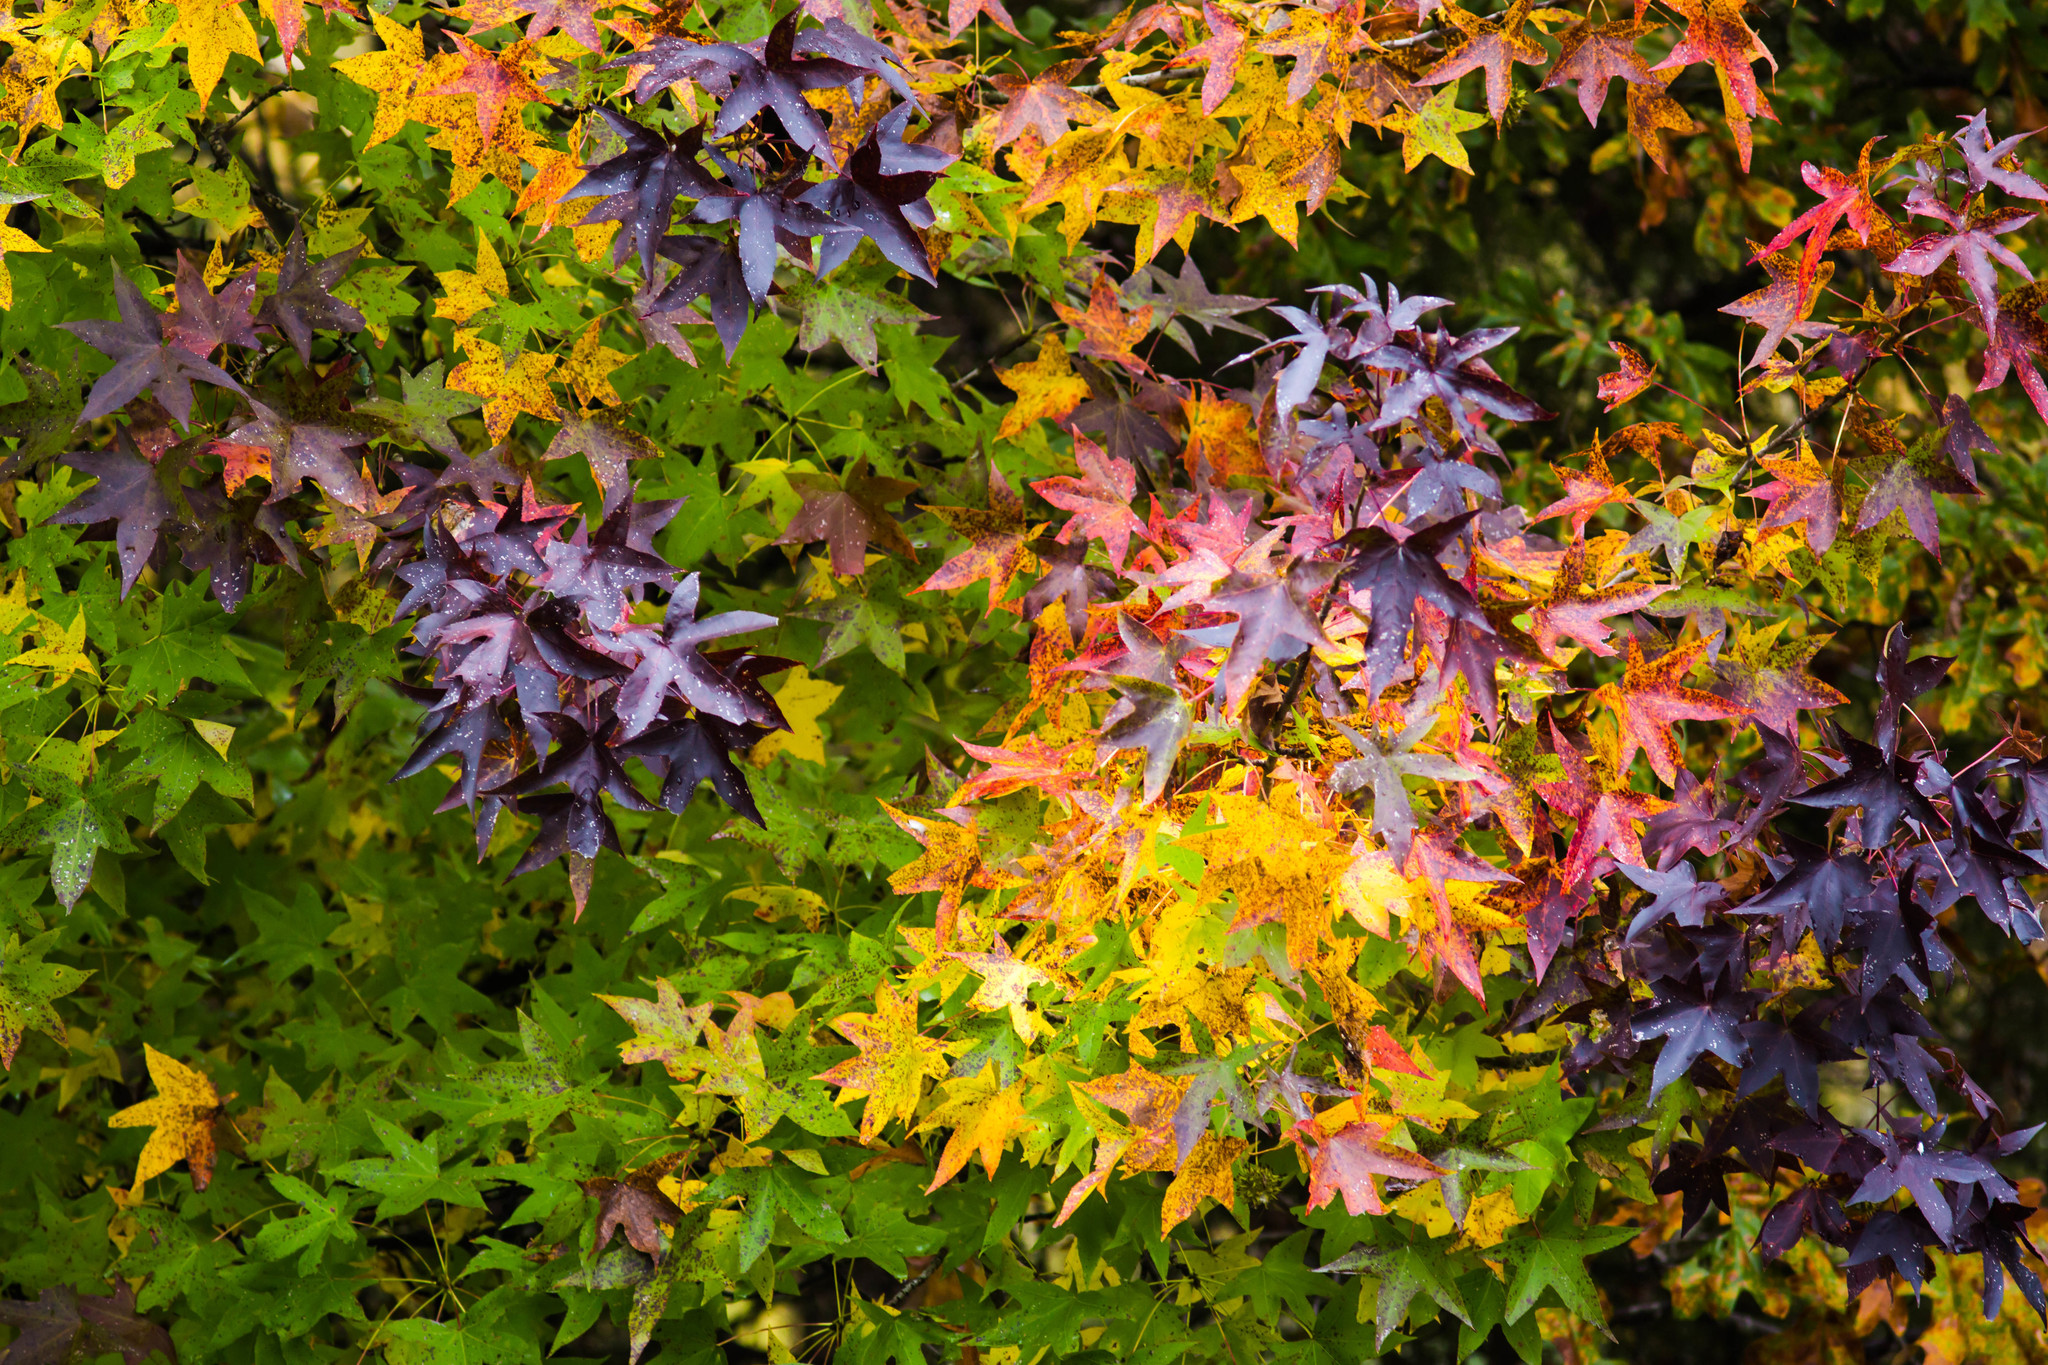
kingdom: Plantae
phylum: Tracheophyta
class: Magnoliopsida
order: Saxifragales
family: Altingiaceae
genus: Liquidambar
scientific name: Liquidambar styraciflua
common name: Sweet gum
